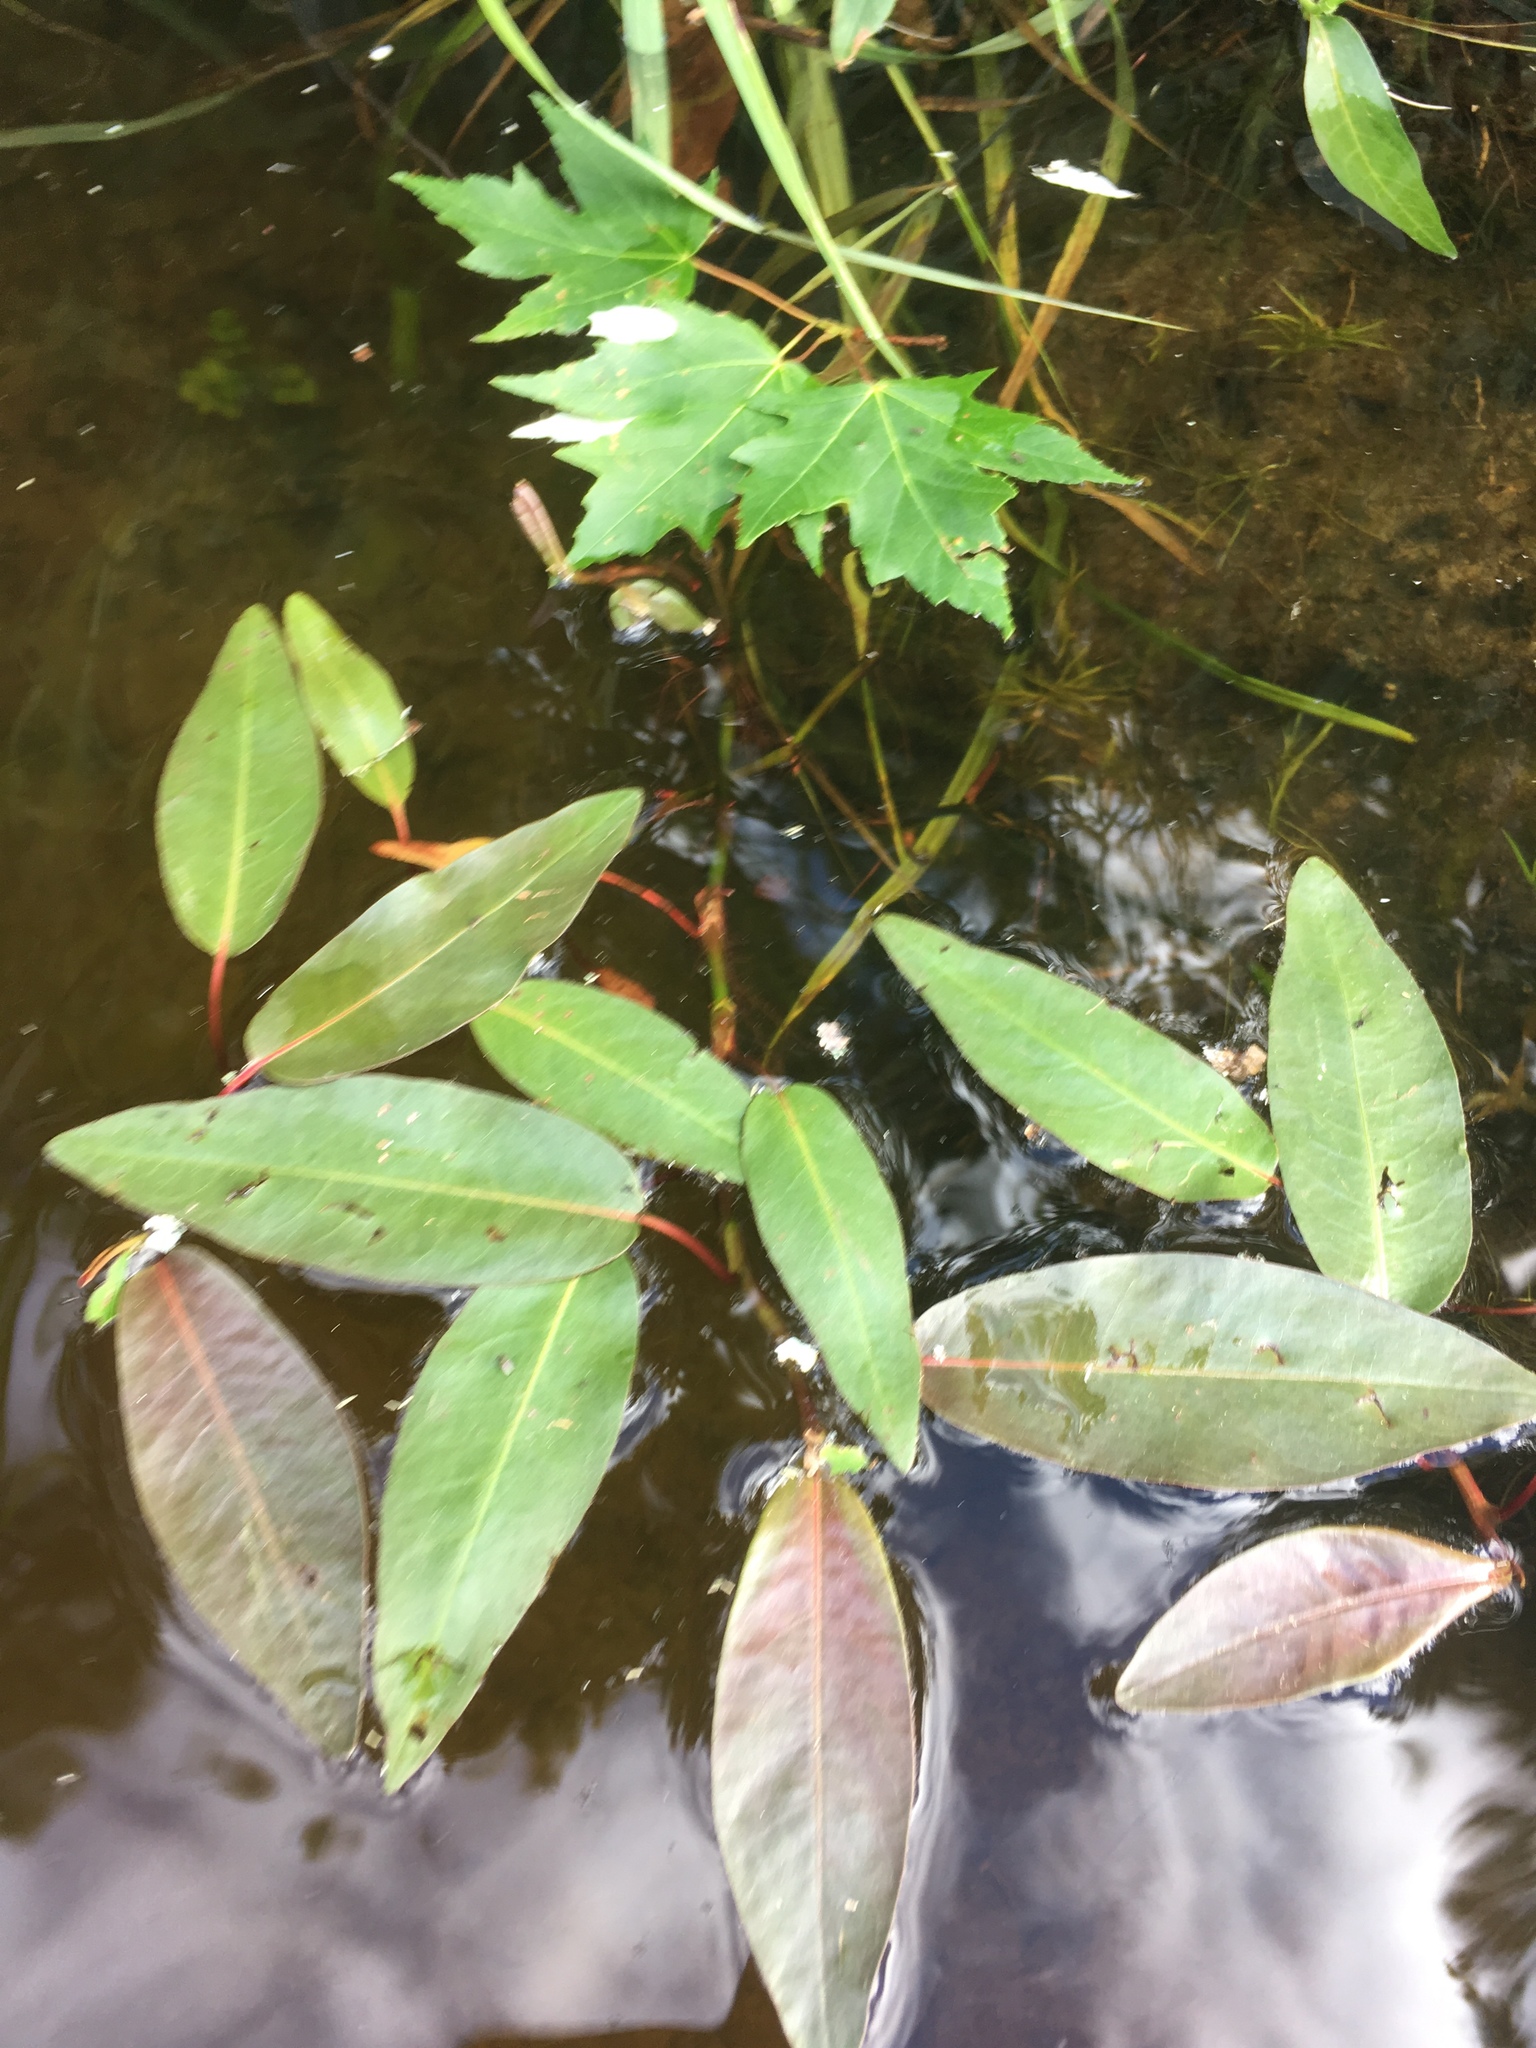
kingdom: Plantae
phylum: Tracheophyta
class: Magnoliopsida
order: Caryophyllales
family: Polygonaceae
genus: Persicaria
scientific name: Persicaria amphibia
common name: Amphibious bistort
